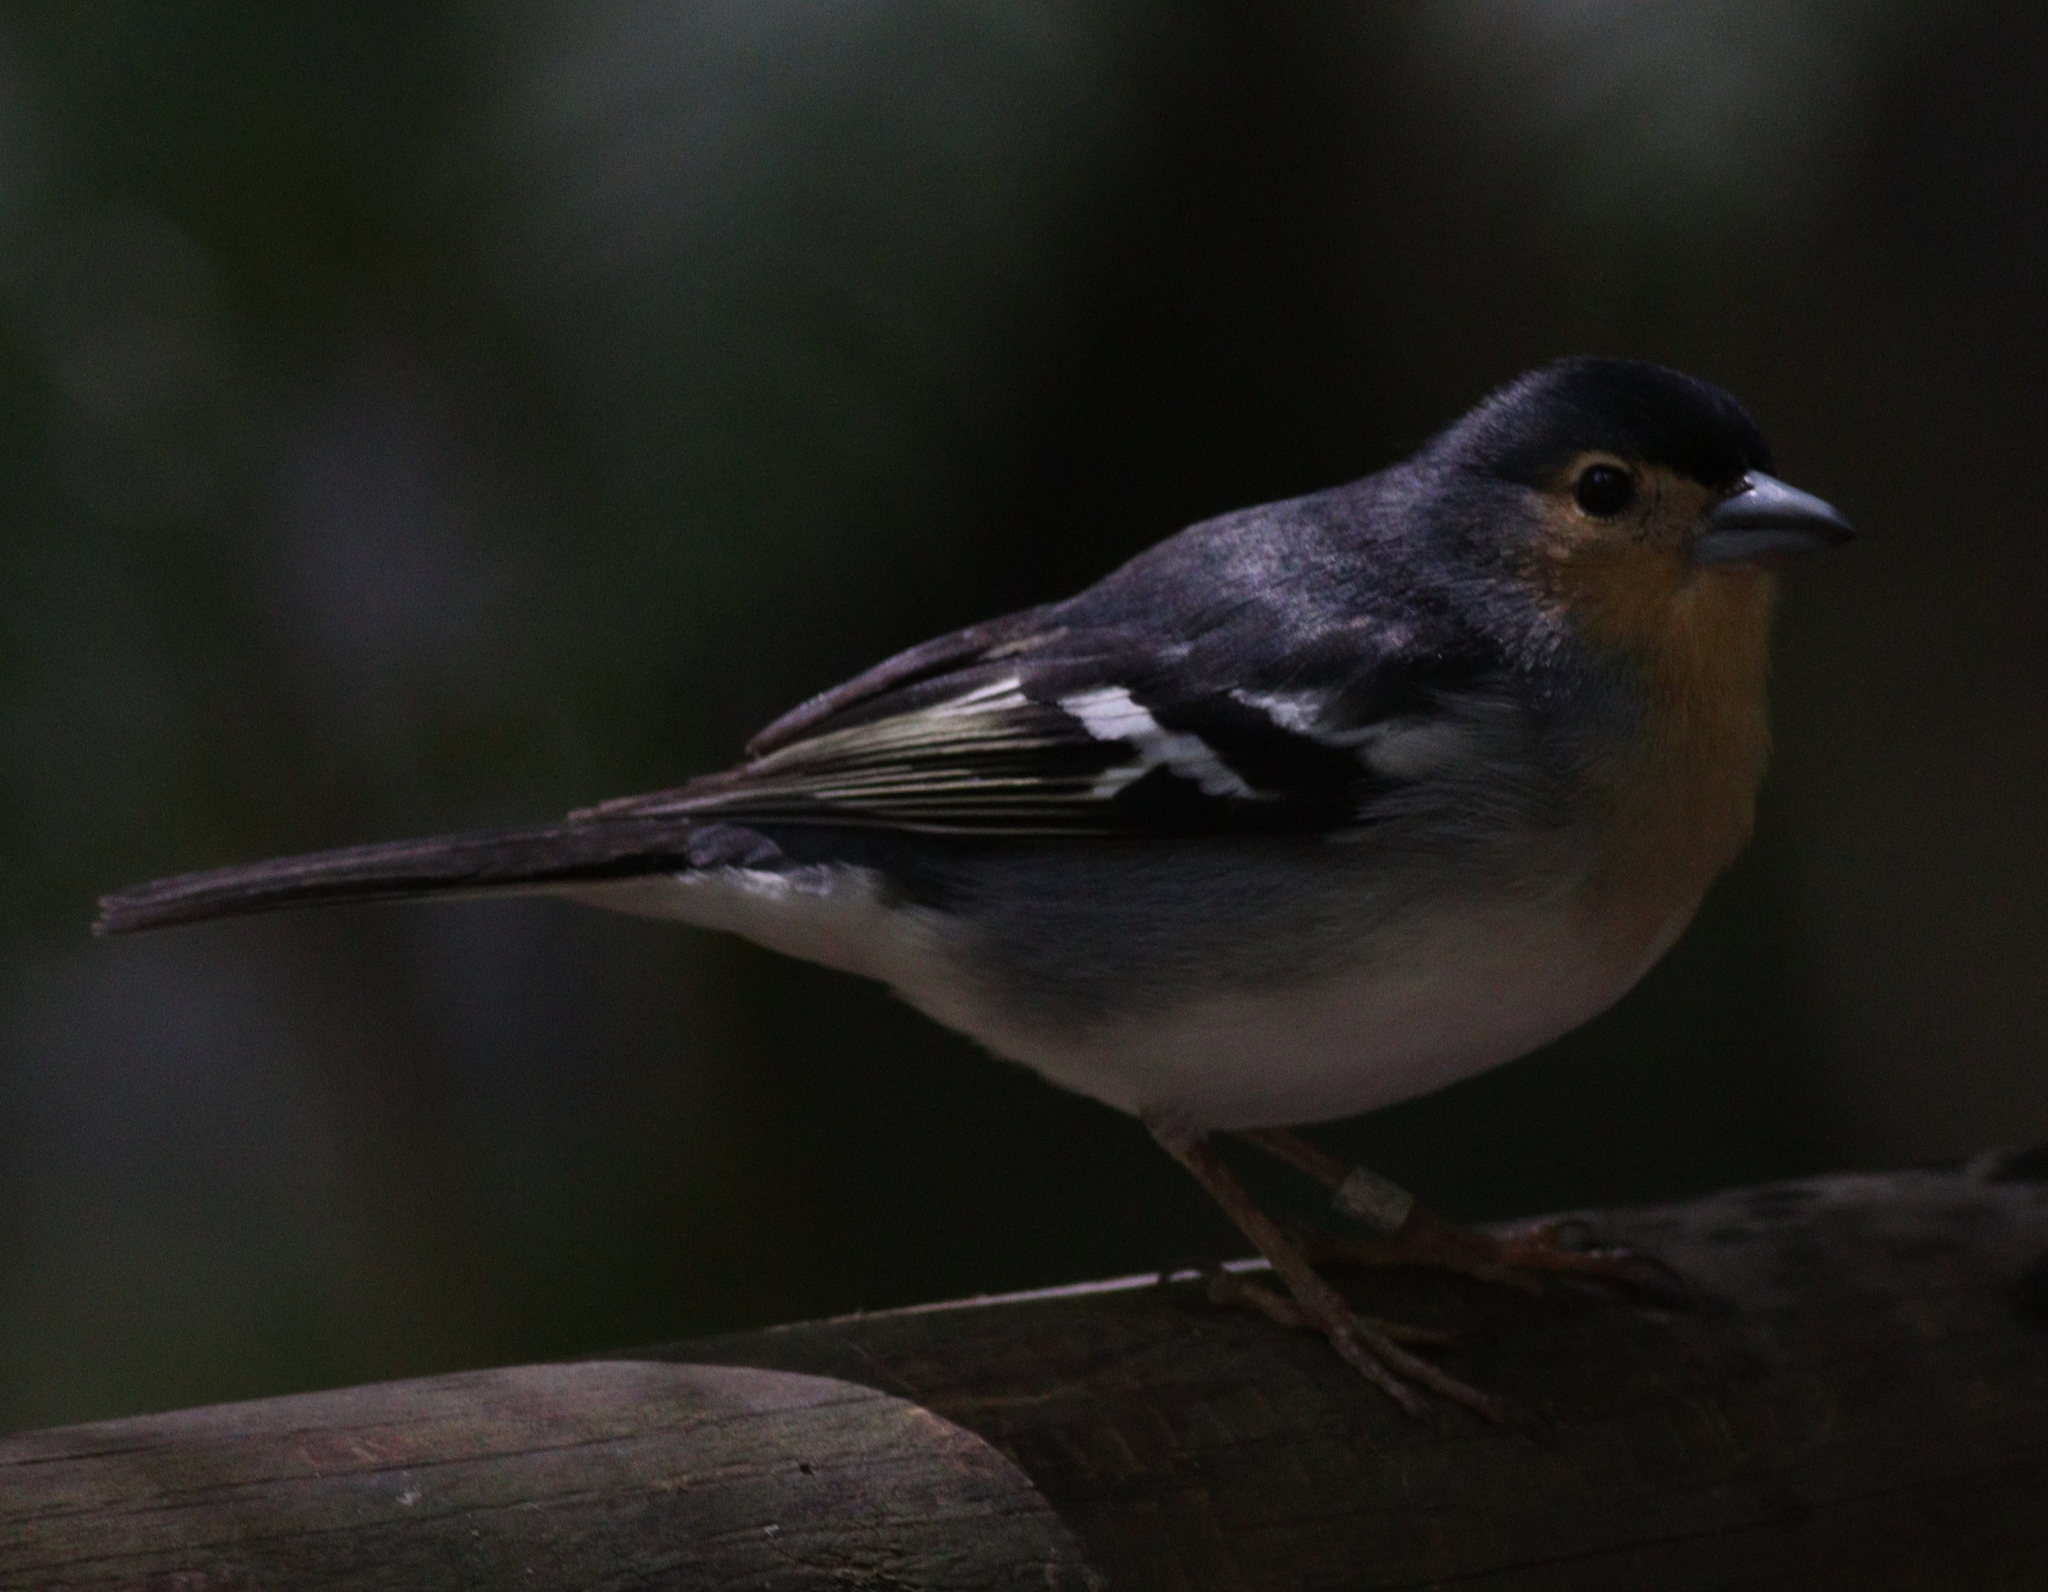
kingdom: Animalia
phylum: Chordata
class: Aves
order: Passeriformes
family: Fringillidae
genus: Fringilla
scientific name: Fringilla canariensis
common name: Canary islands chaffinch
